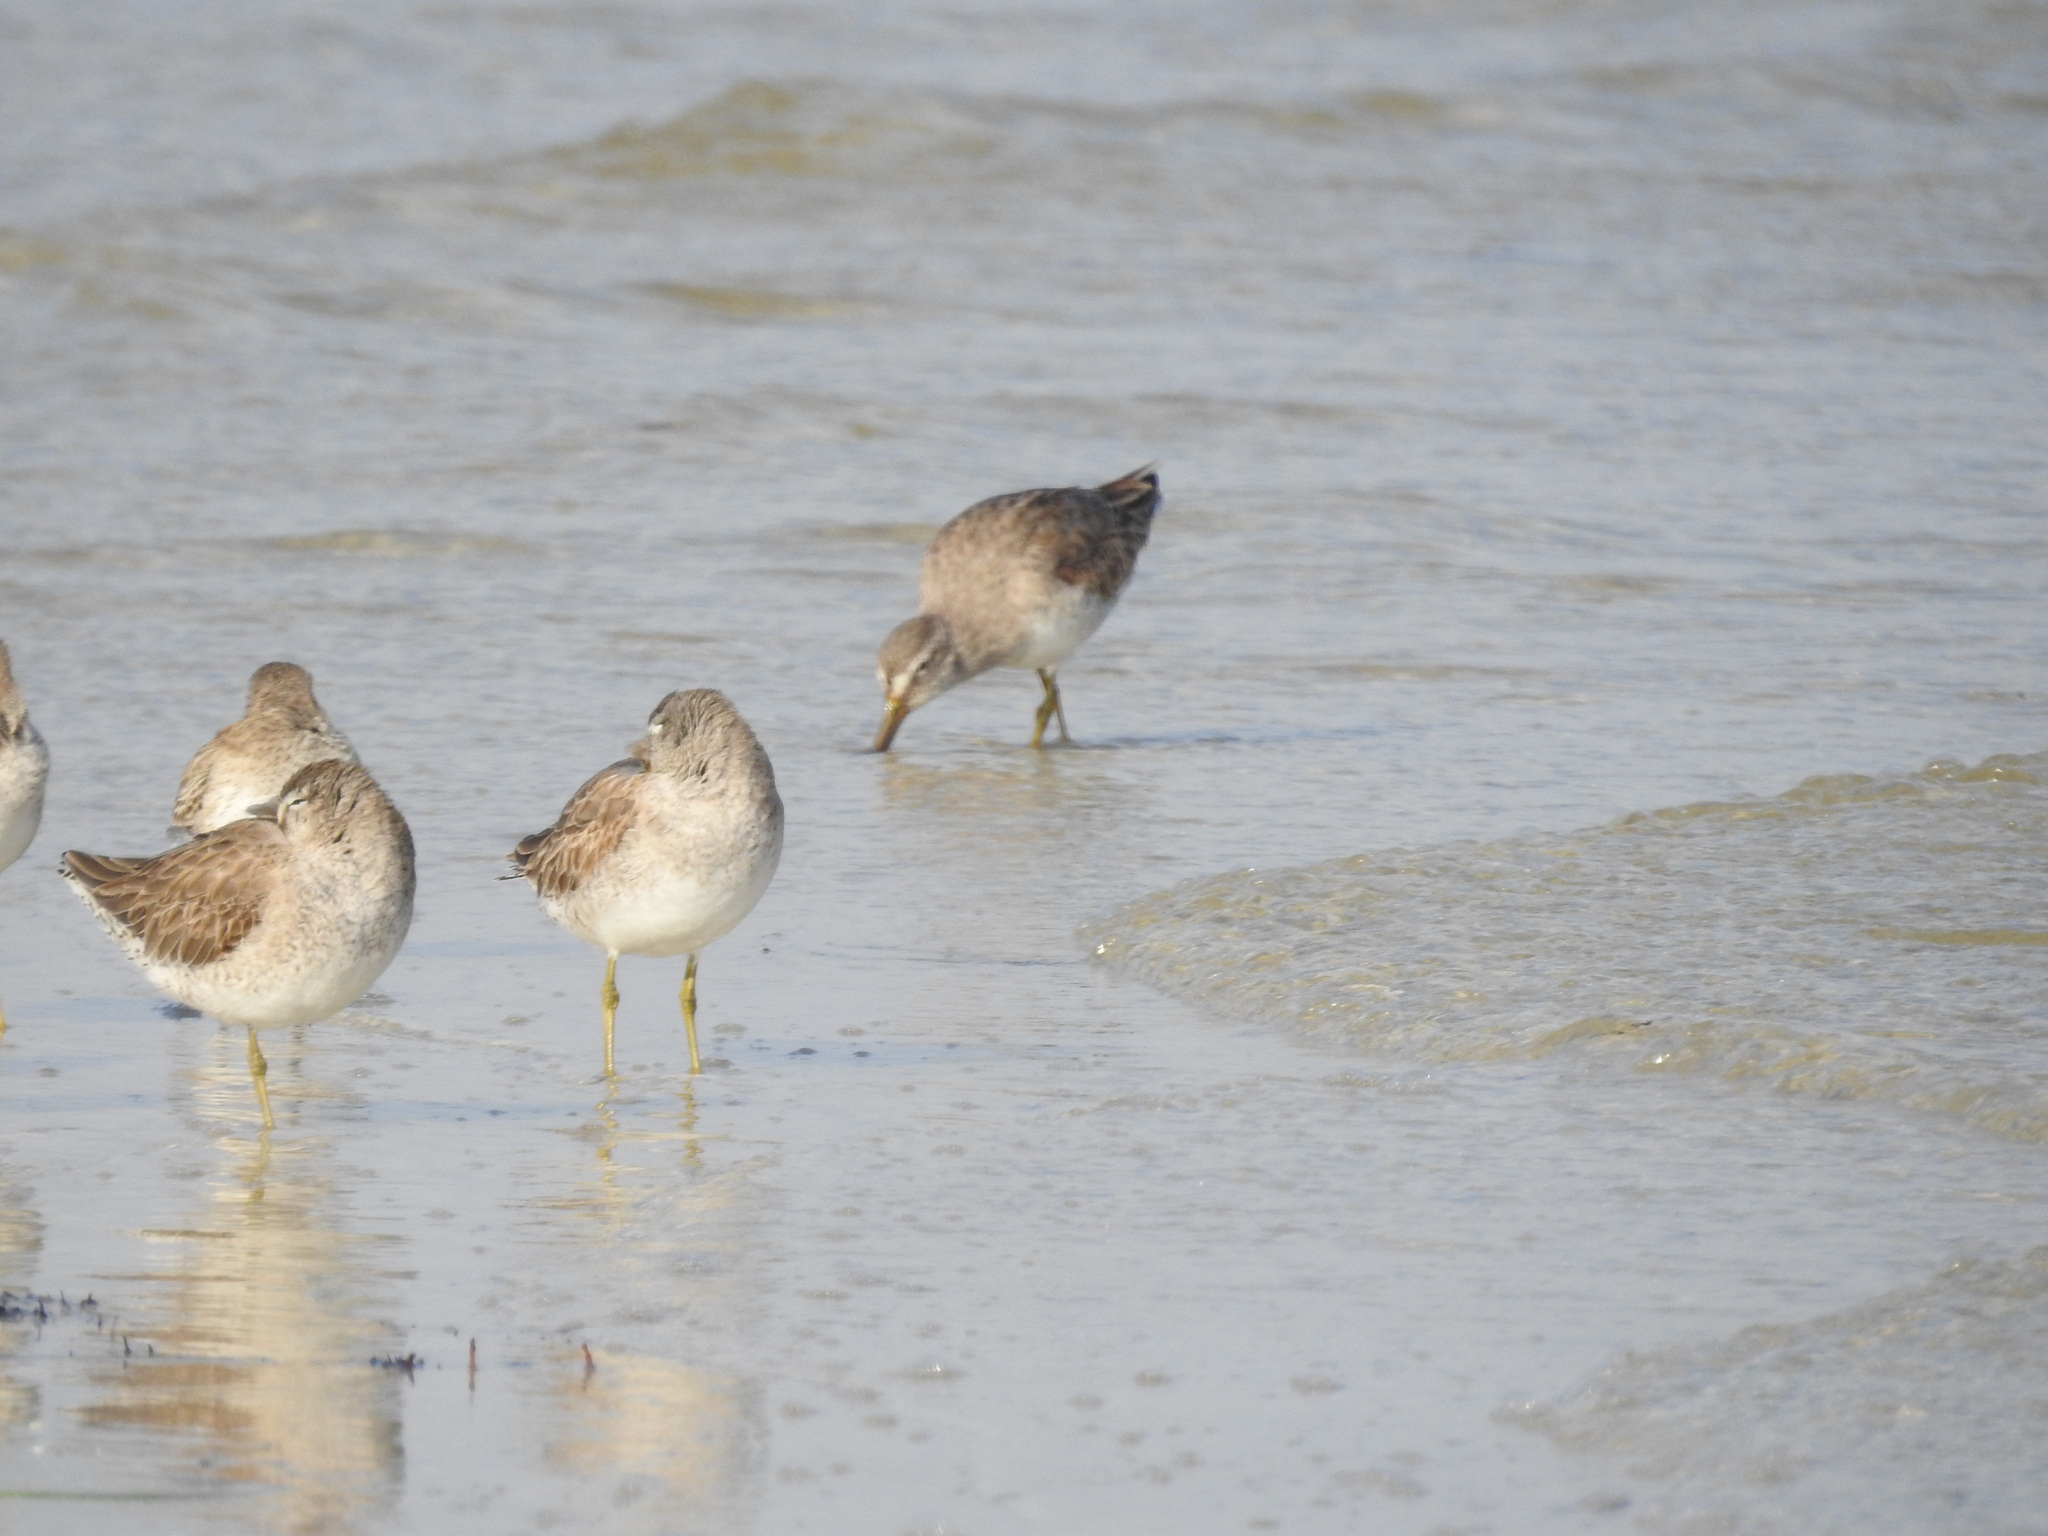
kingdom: Animalia
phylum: Chordata
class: Aves
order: Charadriiformes
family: Scolopacidae
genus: Limnodromus
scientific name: Limnodromus griseus
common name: Short-billed dowitcher
